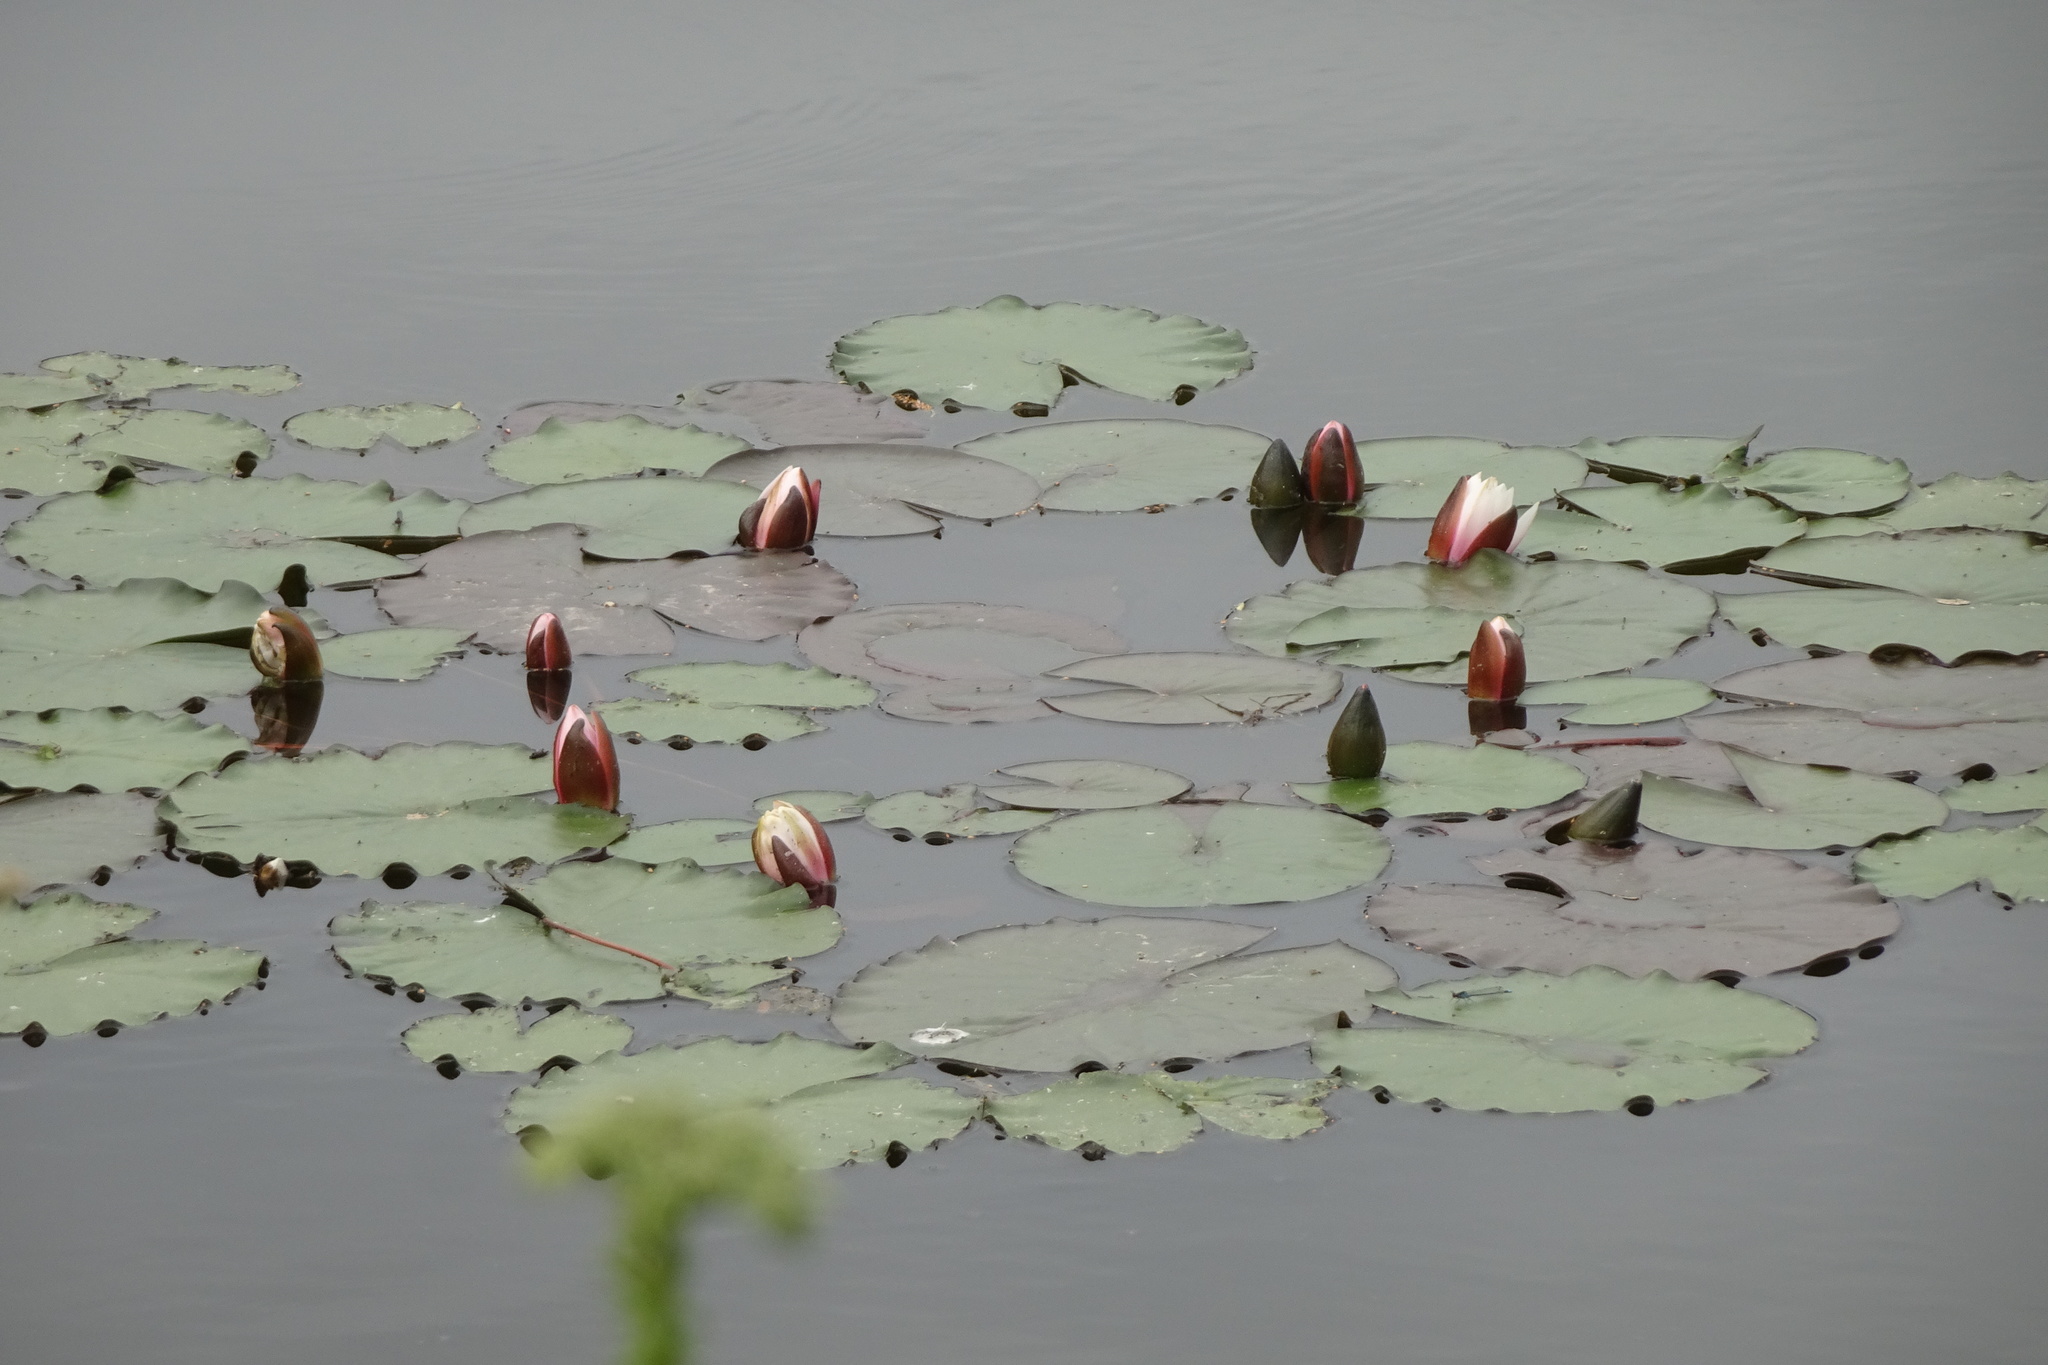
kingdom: Plantae
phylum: Tracheophyta
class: Magnoliopsida
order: Nymphaeales
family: Nymphaeaceae
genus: Nymphaea
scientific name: Nymphaea alba
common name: White water-lily
